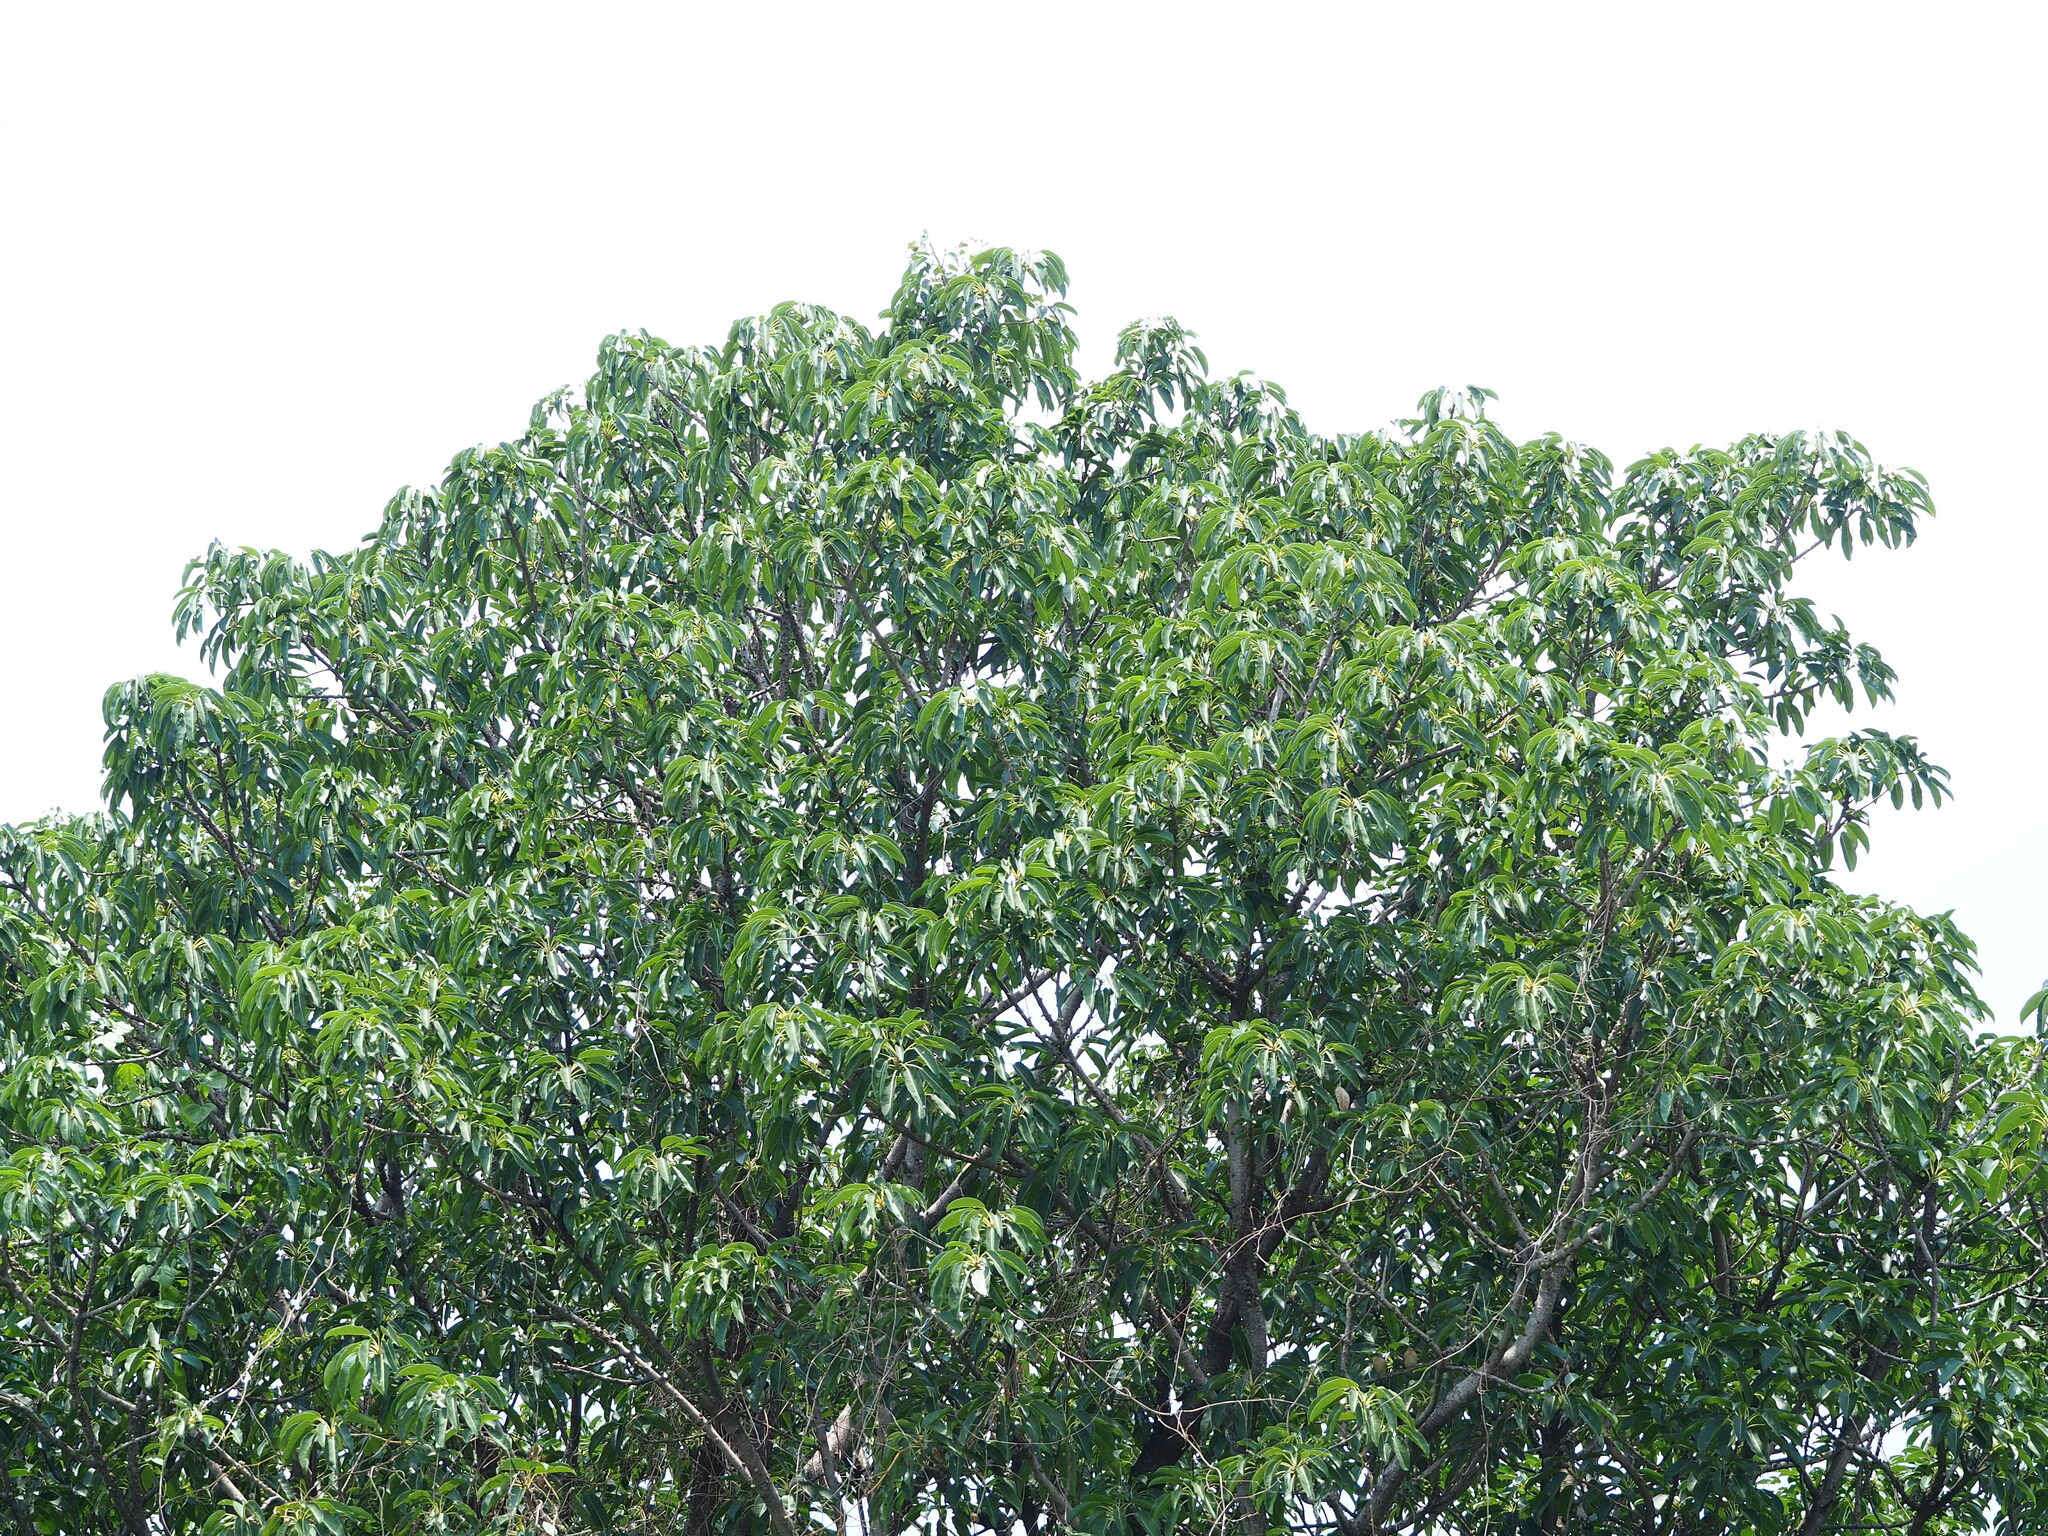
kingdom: Plantae
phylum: Tracheophyta
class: Magnoliopsida
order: Rosales
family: Moraceae
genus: Ficus
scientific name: Ficus subpisocarpa
